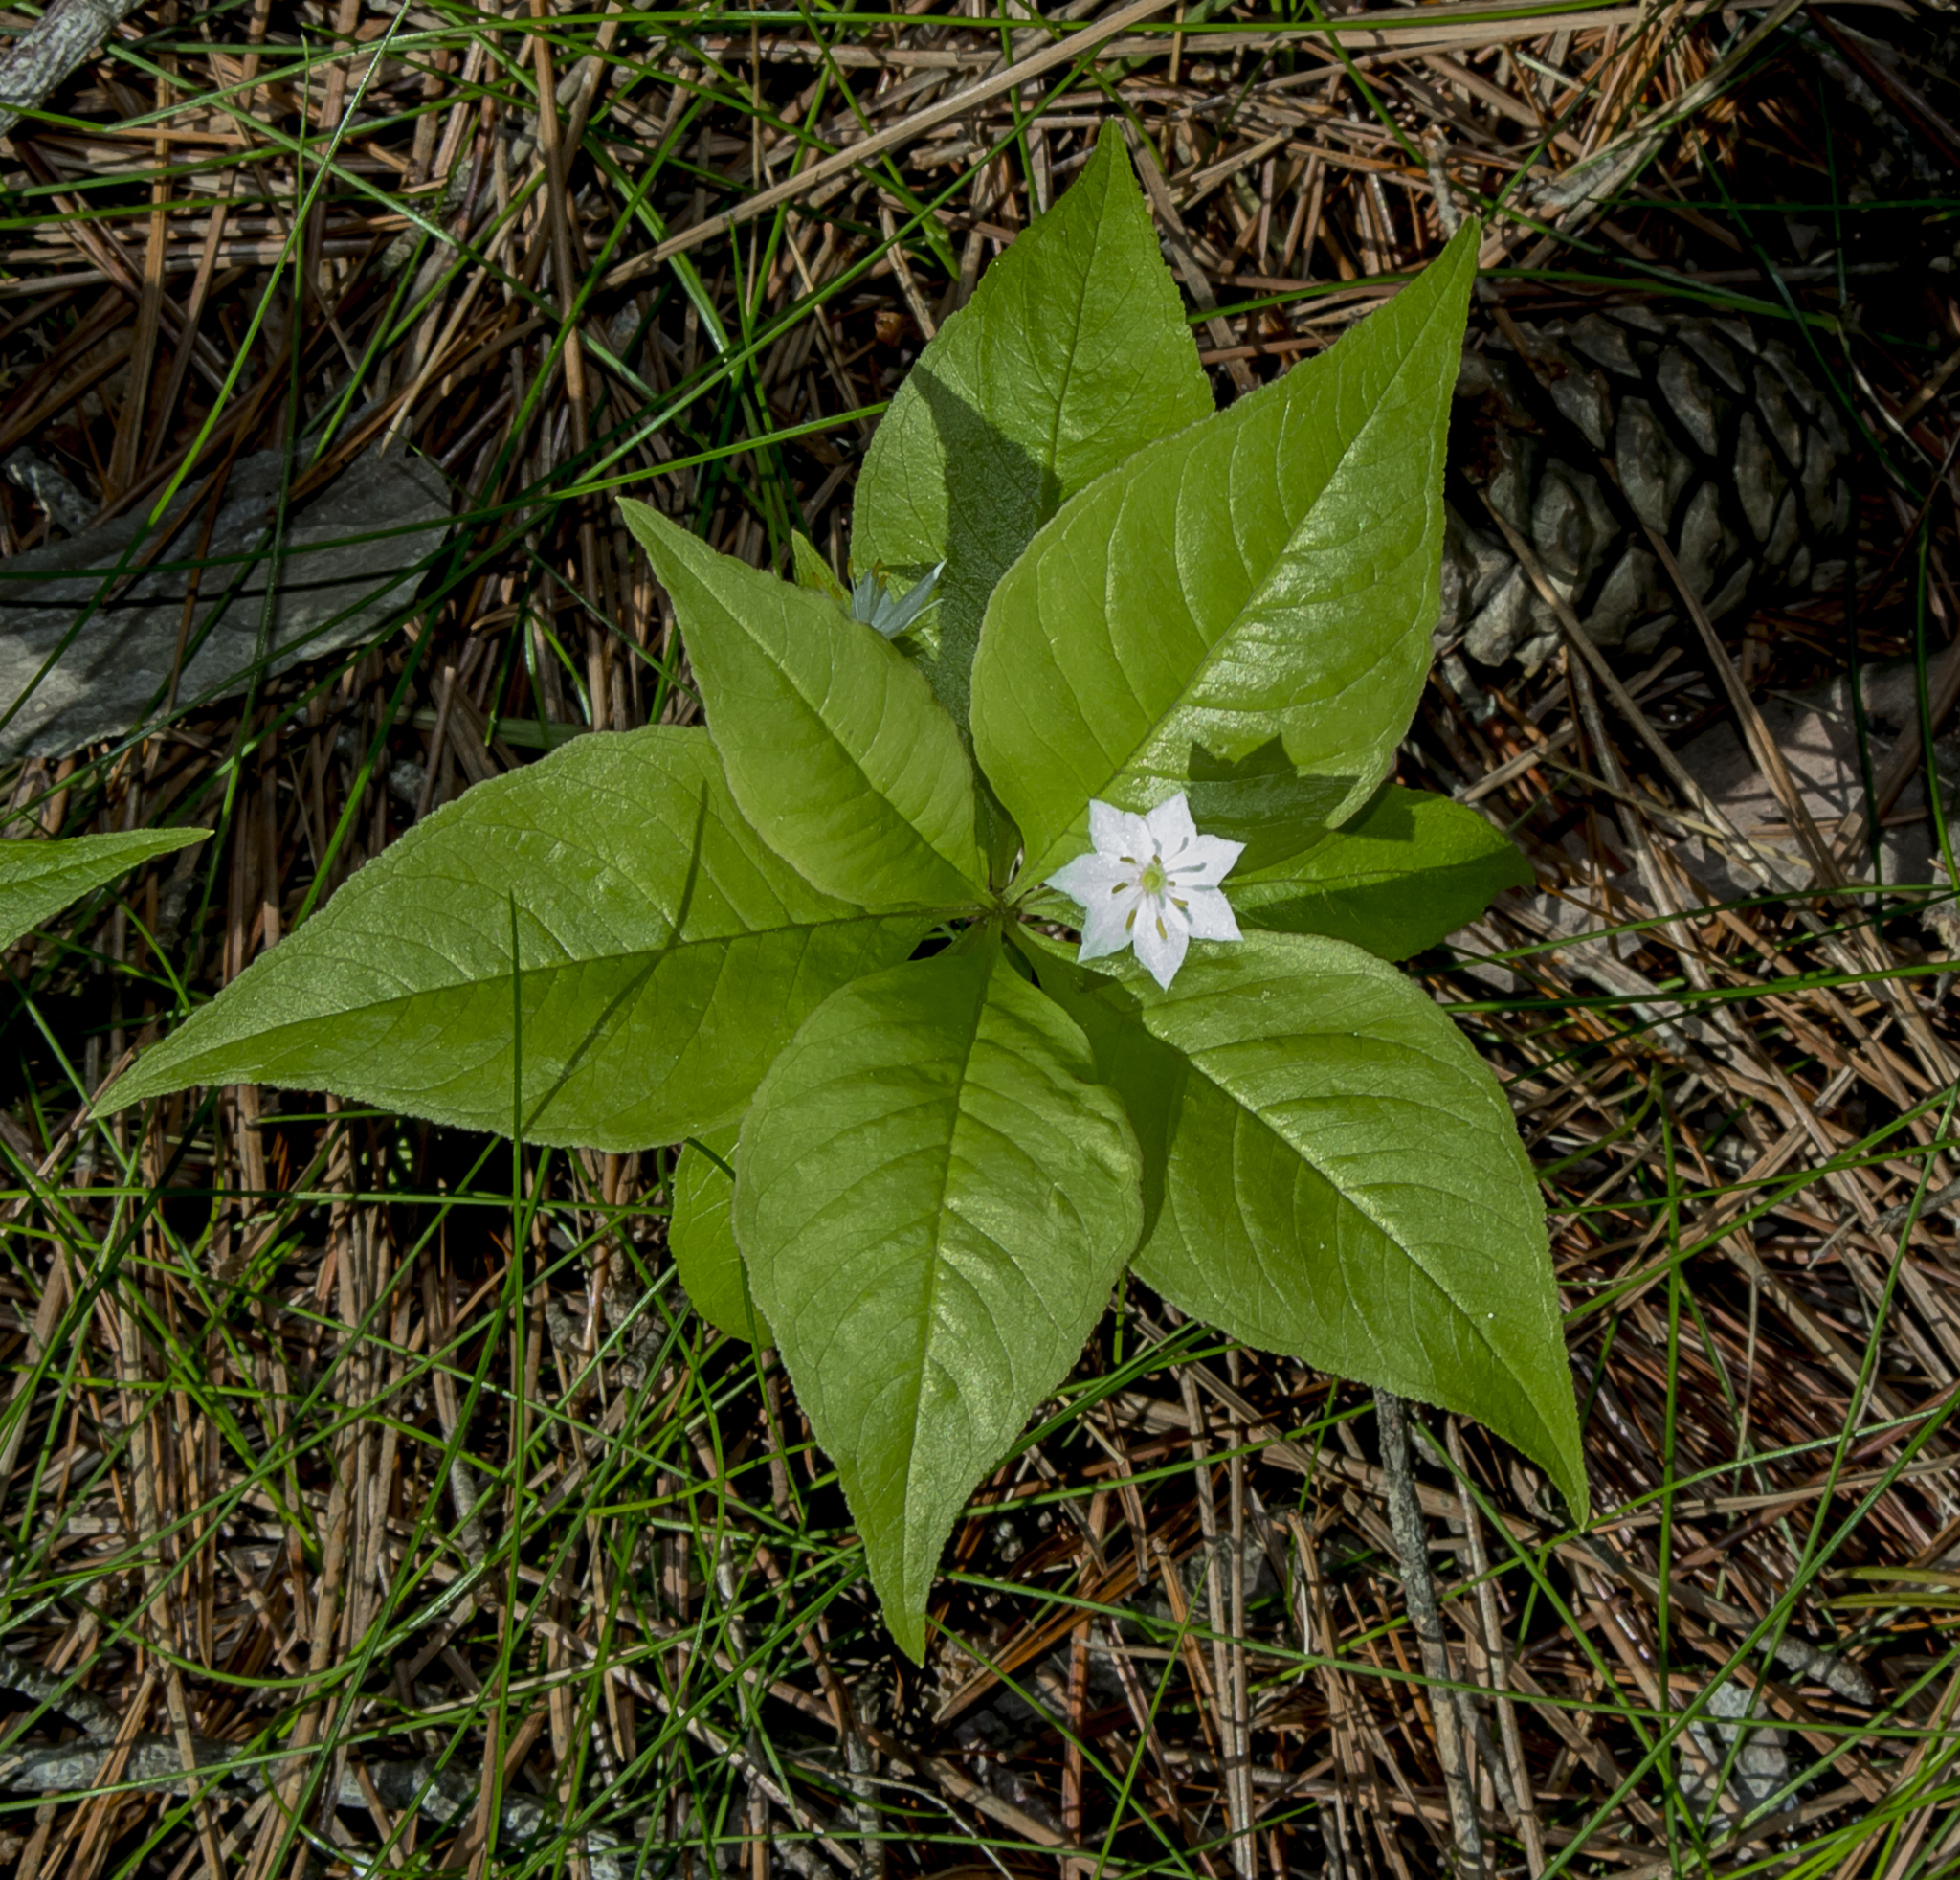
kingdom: Plantae
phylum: Tracheophyta
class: Magnoliopsida
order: Ericales
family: Primulaceae
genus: Lysimachia
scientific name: Lysimachia borealis
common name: American starflower
